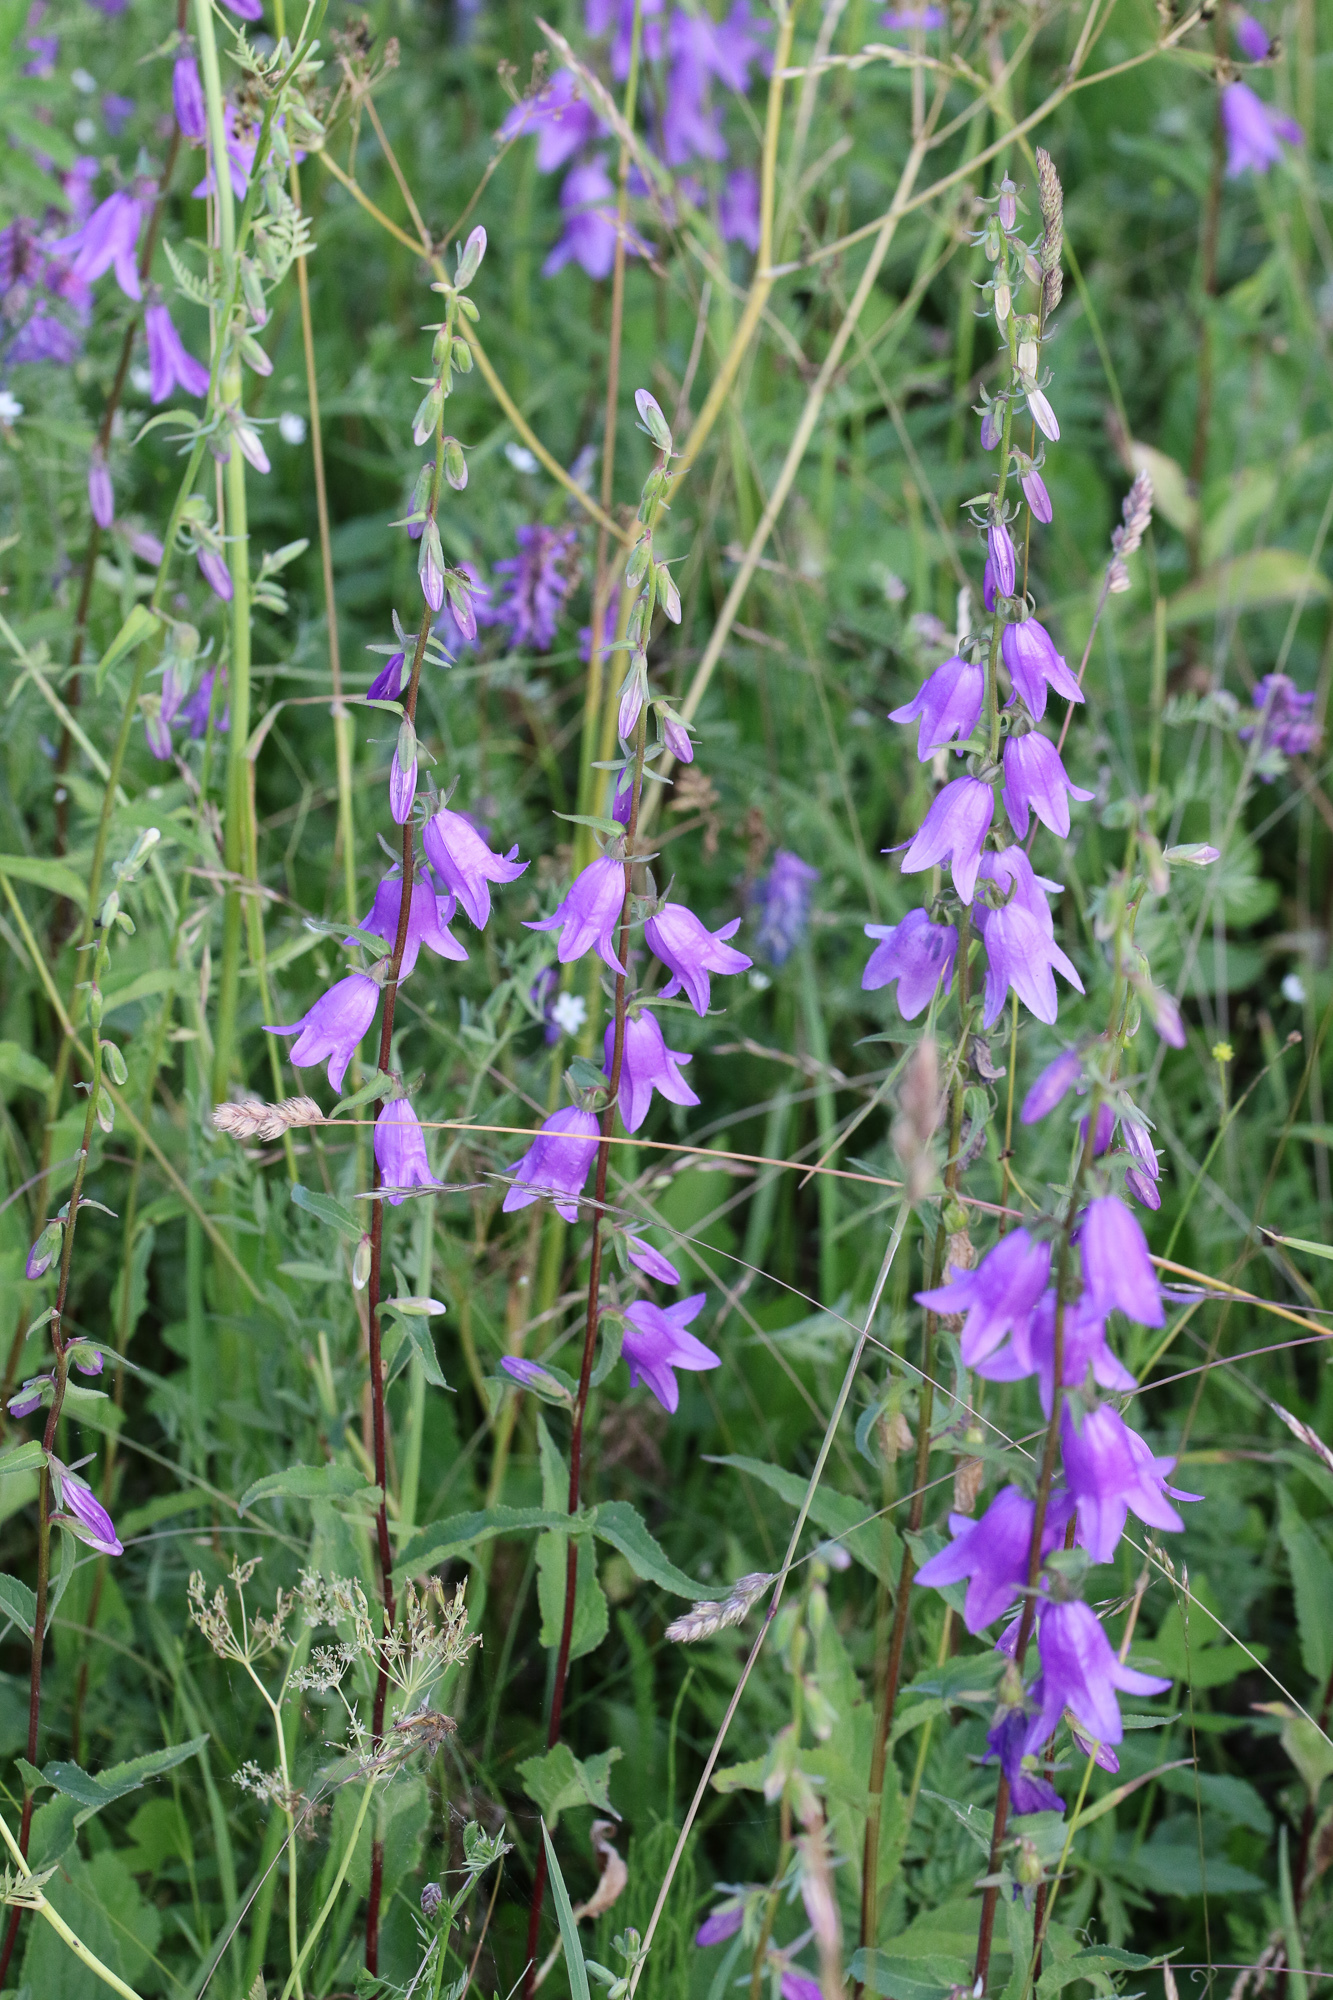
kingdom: Plantae
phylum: Tracheophyta
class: Magnoliopsida
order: Asterales
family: Campanulaceae
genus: Campanula
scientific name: Campanula rapunculoides
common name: Creeping bellflower
